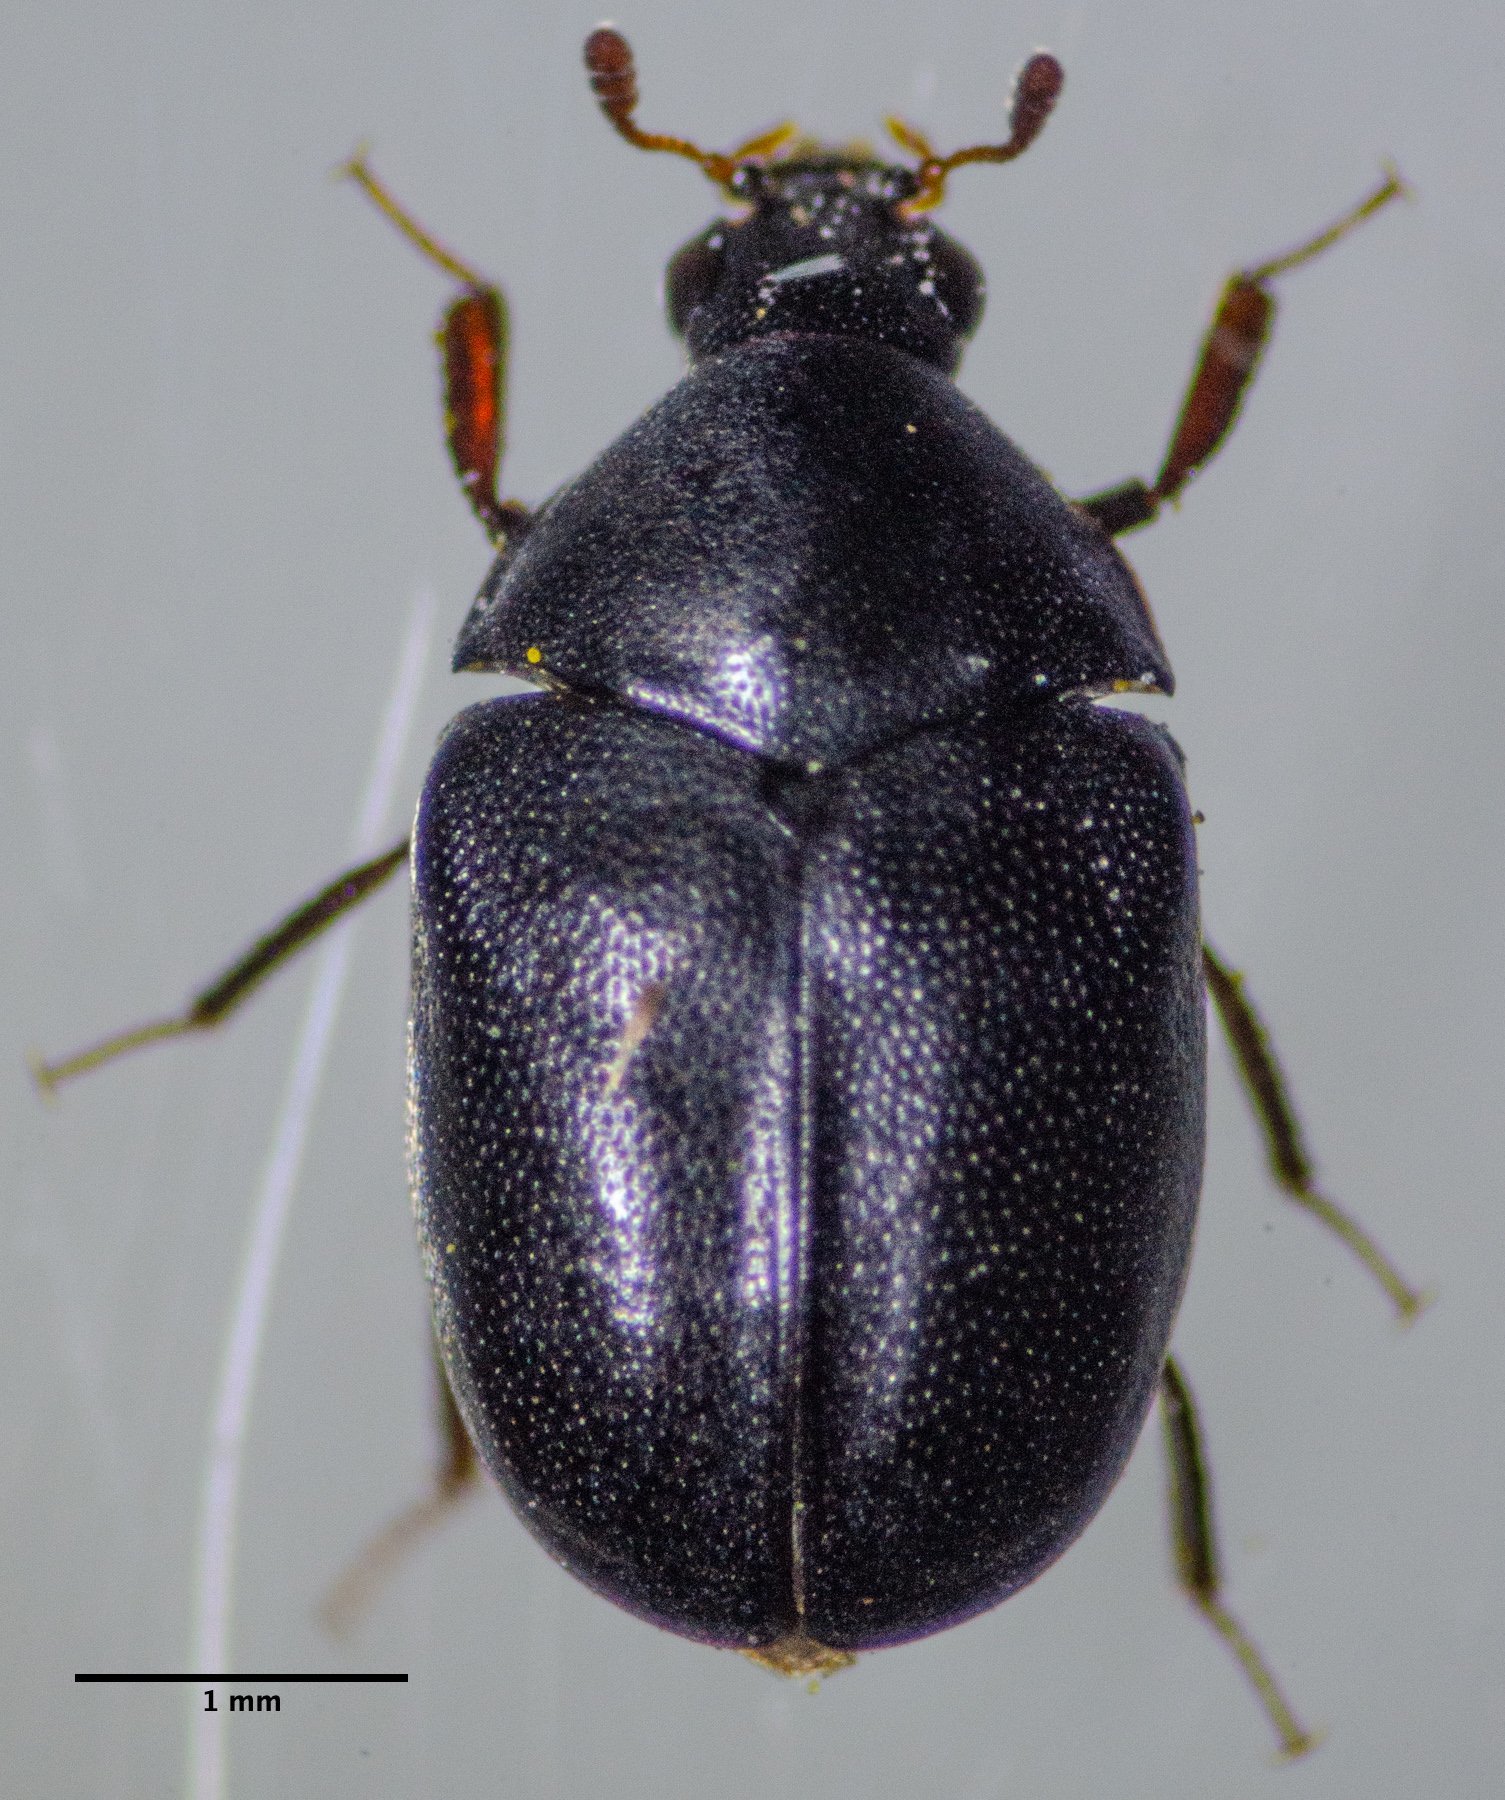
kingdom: Animalia
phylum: Arthropoda
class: Insecta
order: Coleoptera
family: Dermestidae
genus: Orphilus
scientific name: Orphilus subnitidus
